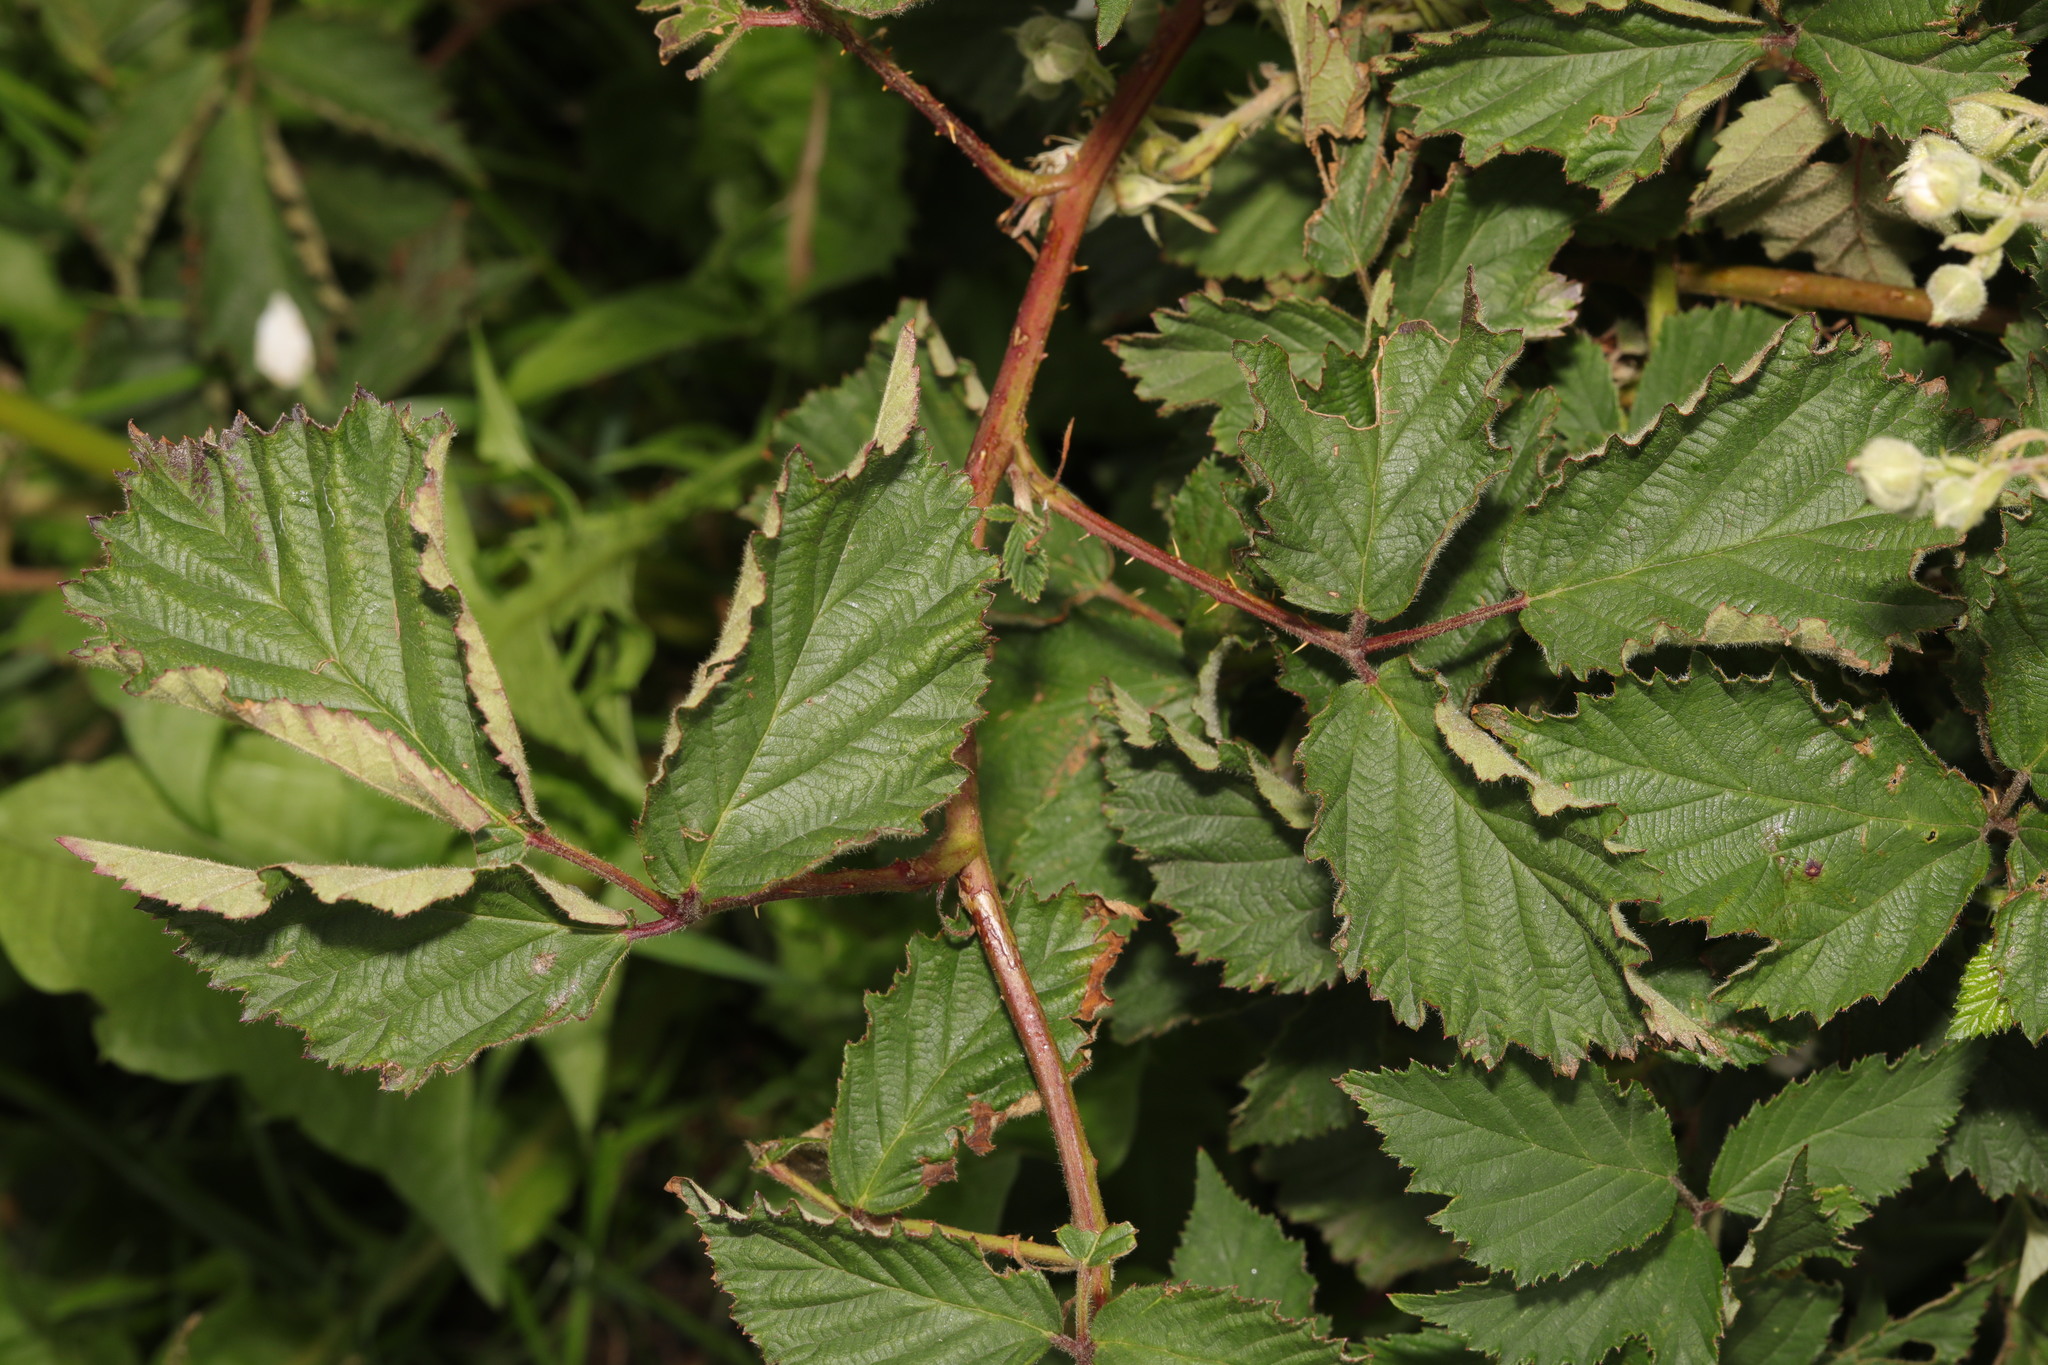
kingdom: Plantae
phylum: Tracheophyta
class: Magnoliopsida
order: Rosales
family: Rosaceae
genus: Rubus
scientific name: Rubus lindleyanus
